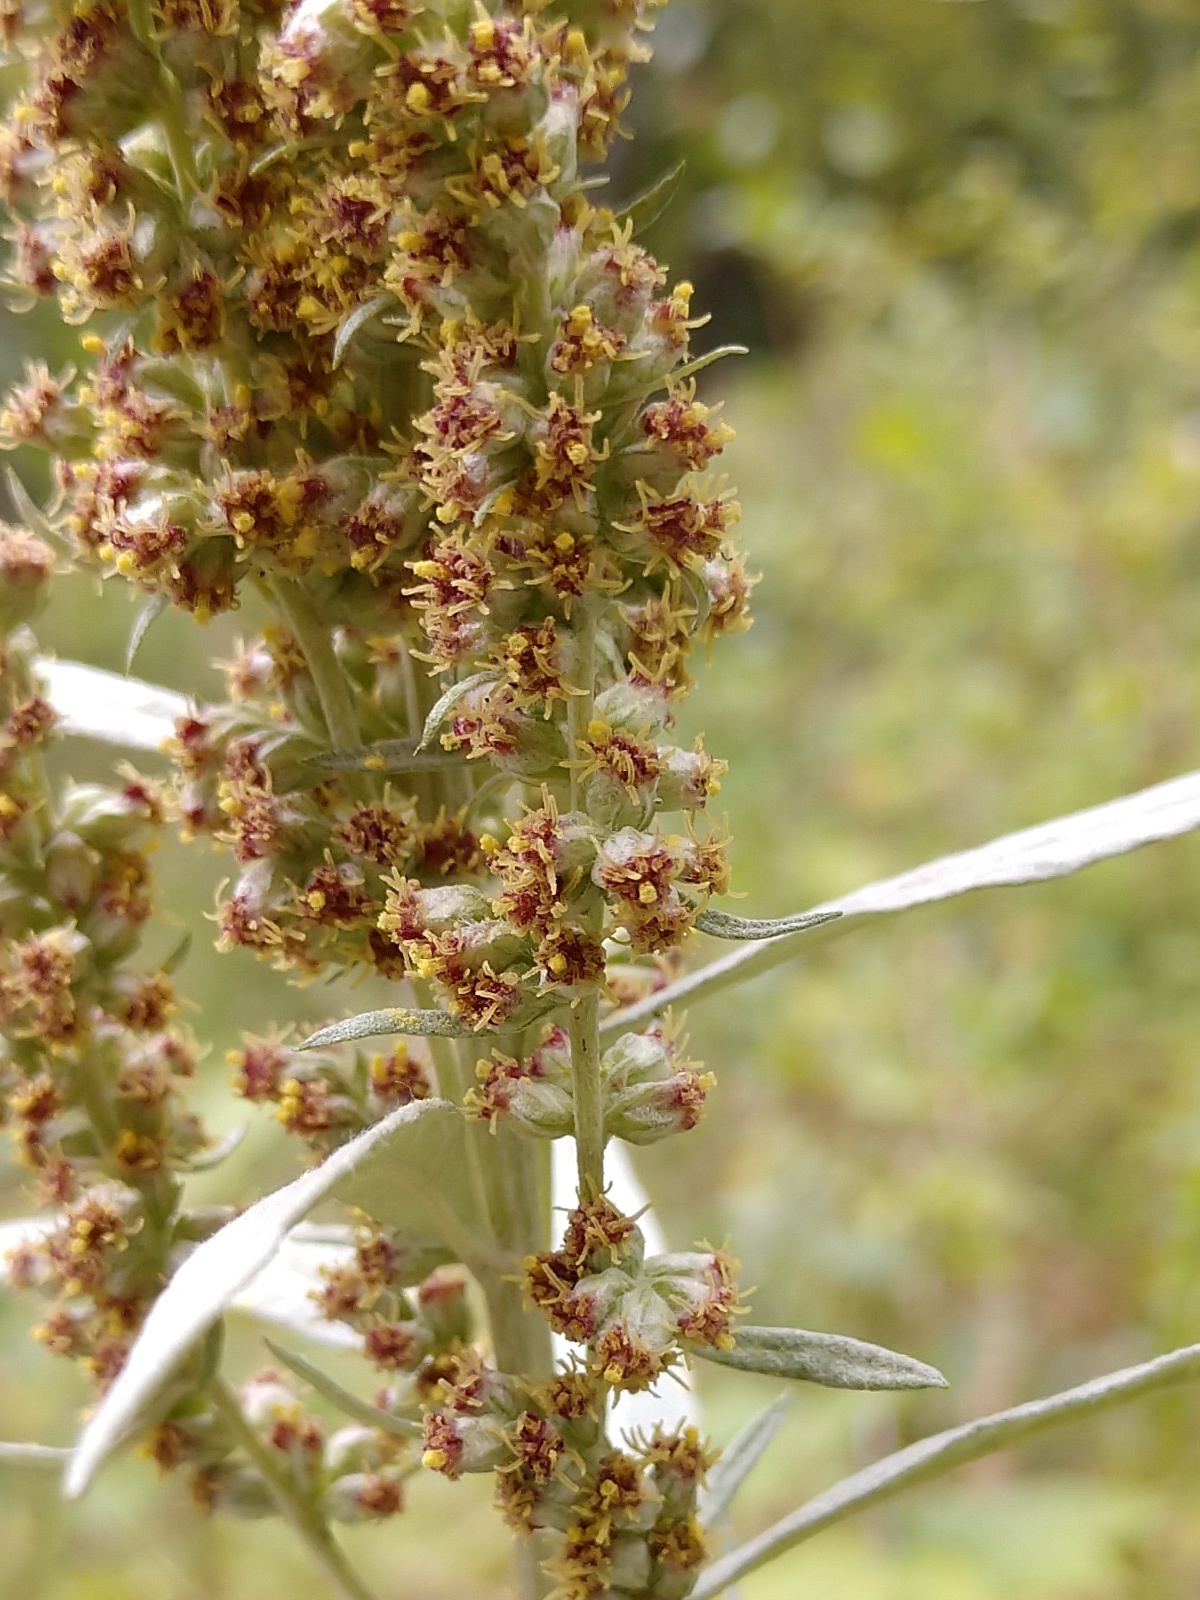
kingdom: Plantae
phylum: Tracheophyta
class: Magnoliopsida
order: Asterales
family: Asteraceae
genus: Artemisia
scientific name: Artemisia ludoviciana
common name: Western mugwort
